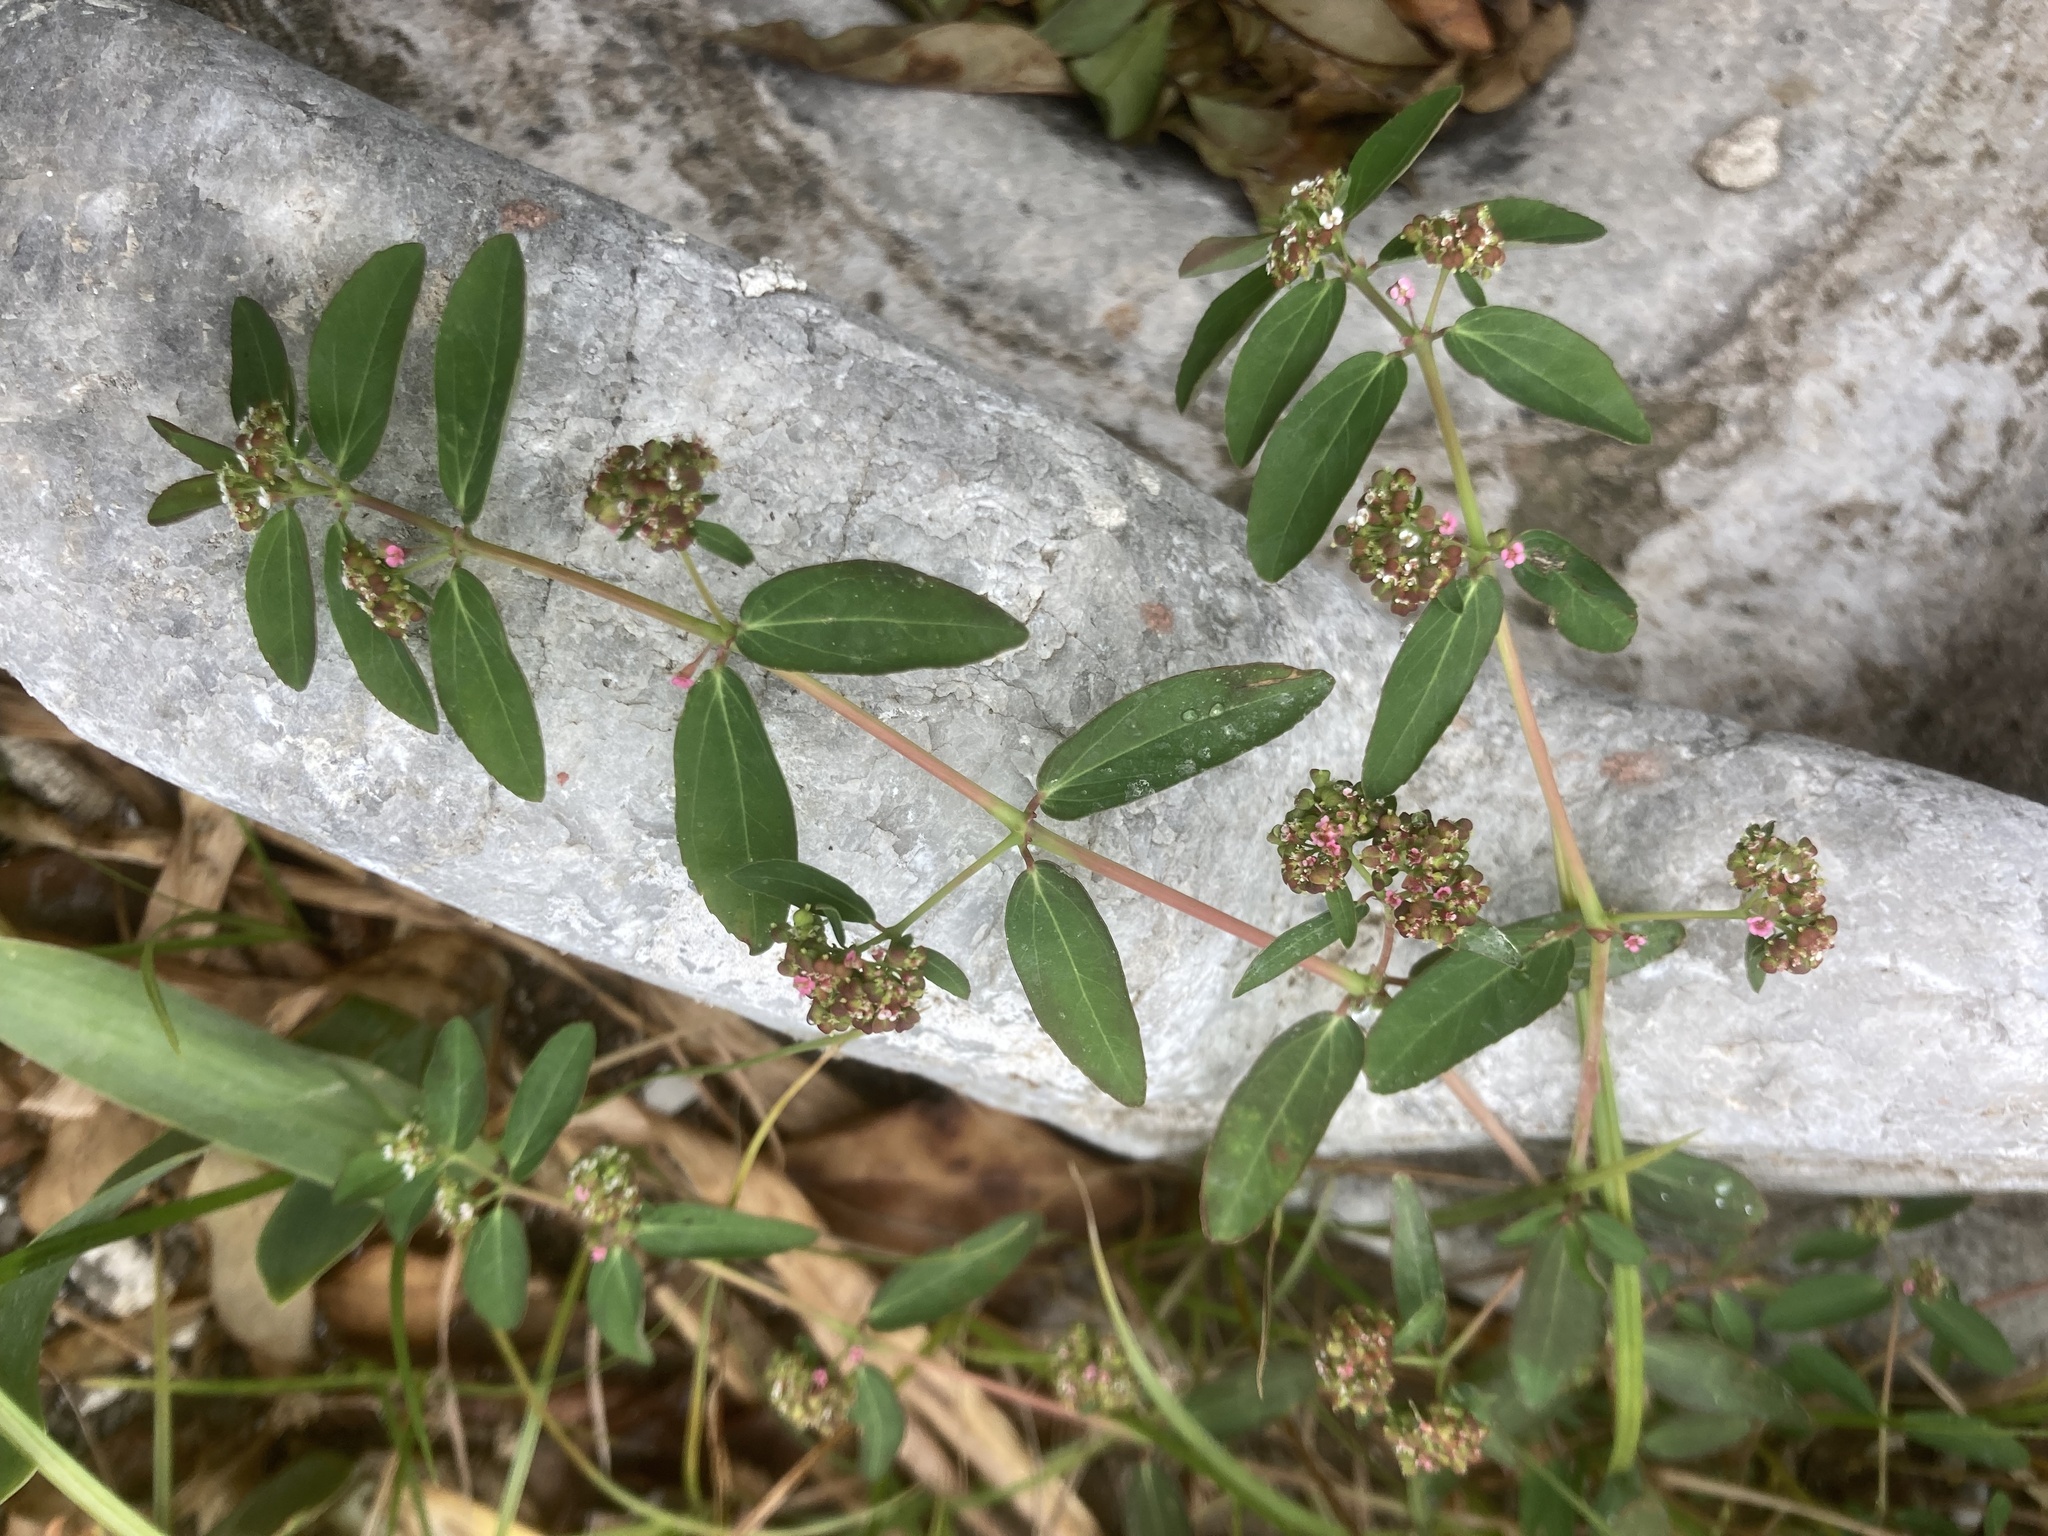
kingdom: Plantae
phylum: Tracheophyta
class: Magnoliopsida
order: Malpighiales
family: Euphorbiaceae
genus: Euphorbia
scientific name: Euphorbia hypericifolia
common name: Graceful sandmat
